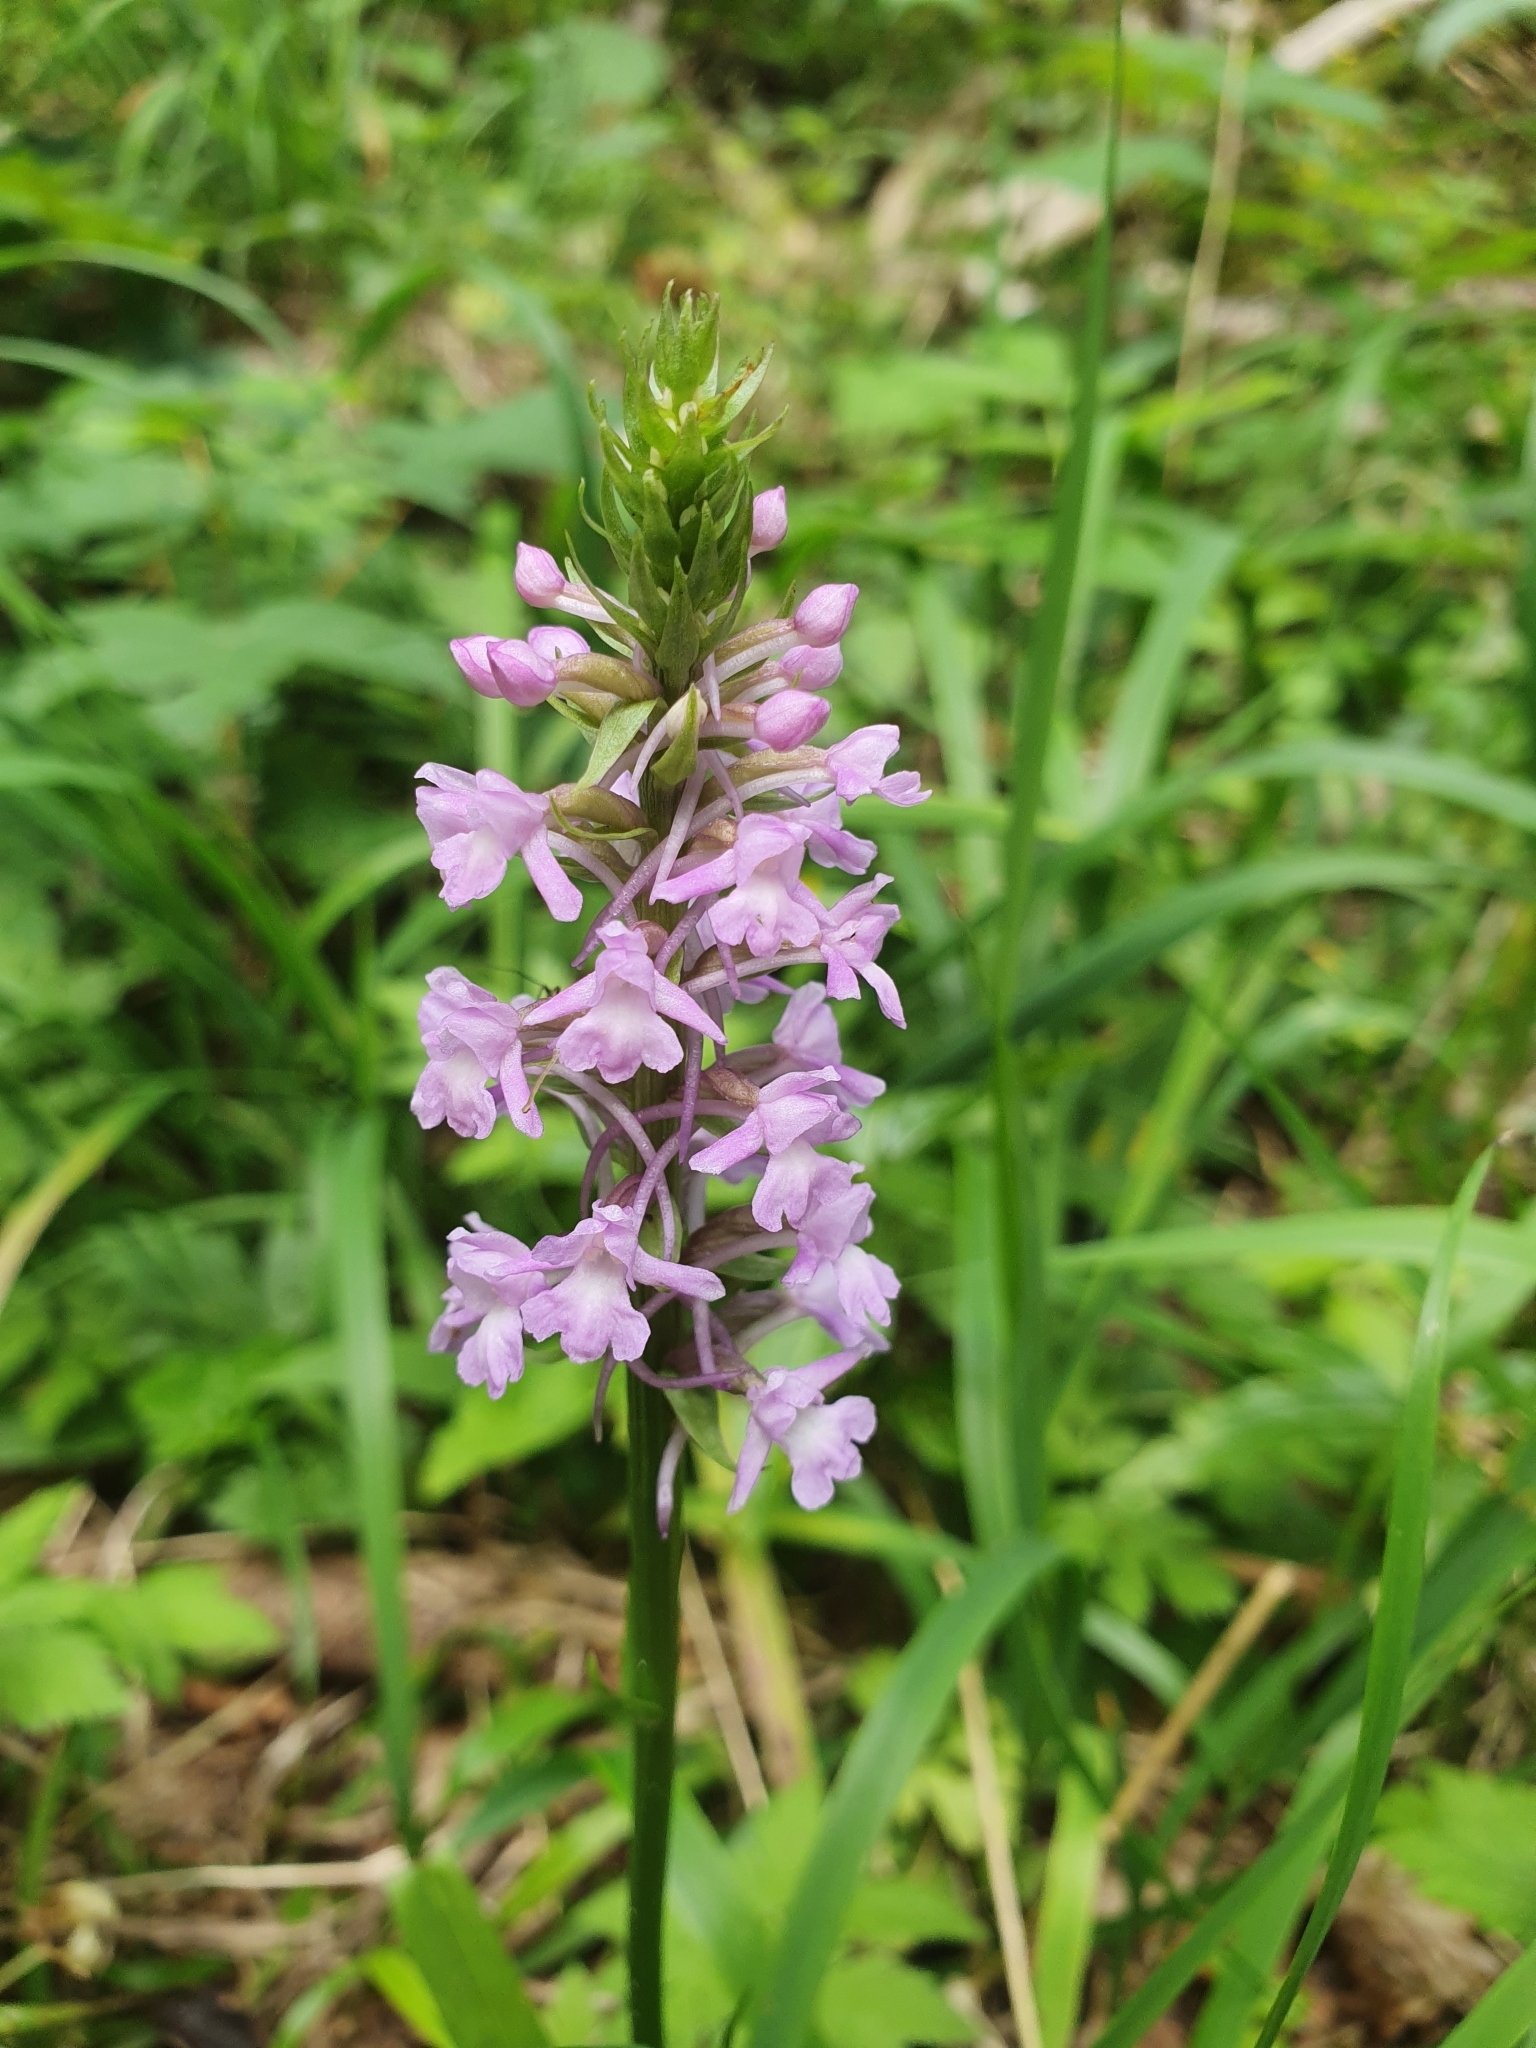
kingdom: Plantae
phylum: Tracheophyta
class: Liliopsida
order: Asparagales
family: Orchidaceae
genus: Gymnadenia
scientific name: Gymnadenia conopsea
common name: Fragrant orchid
